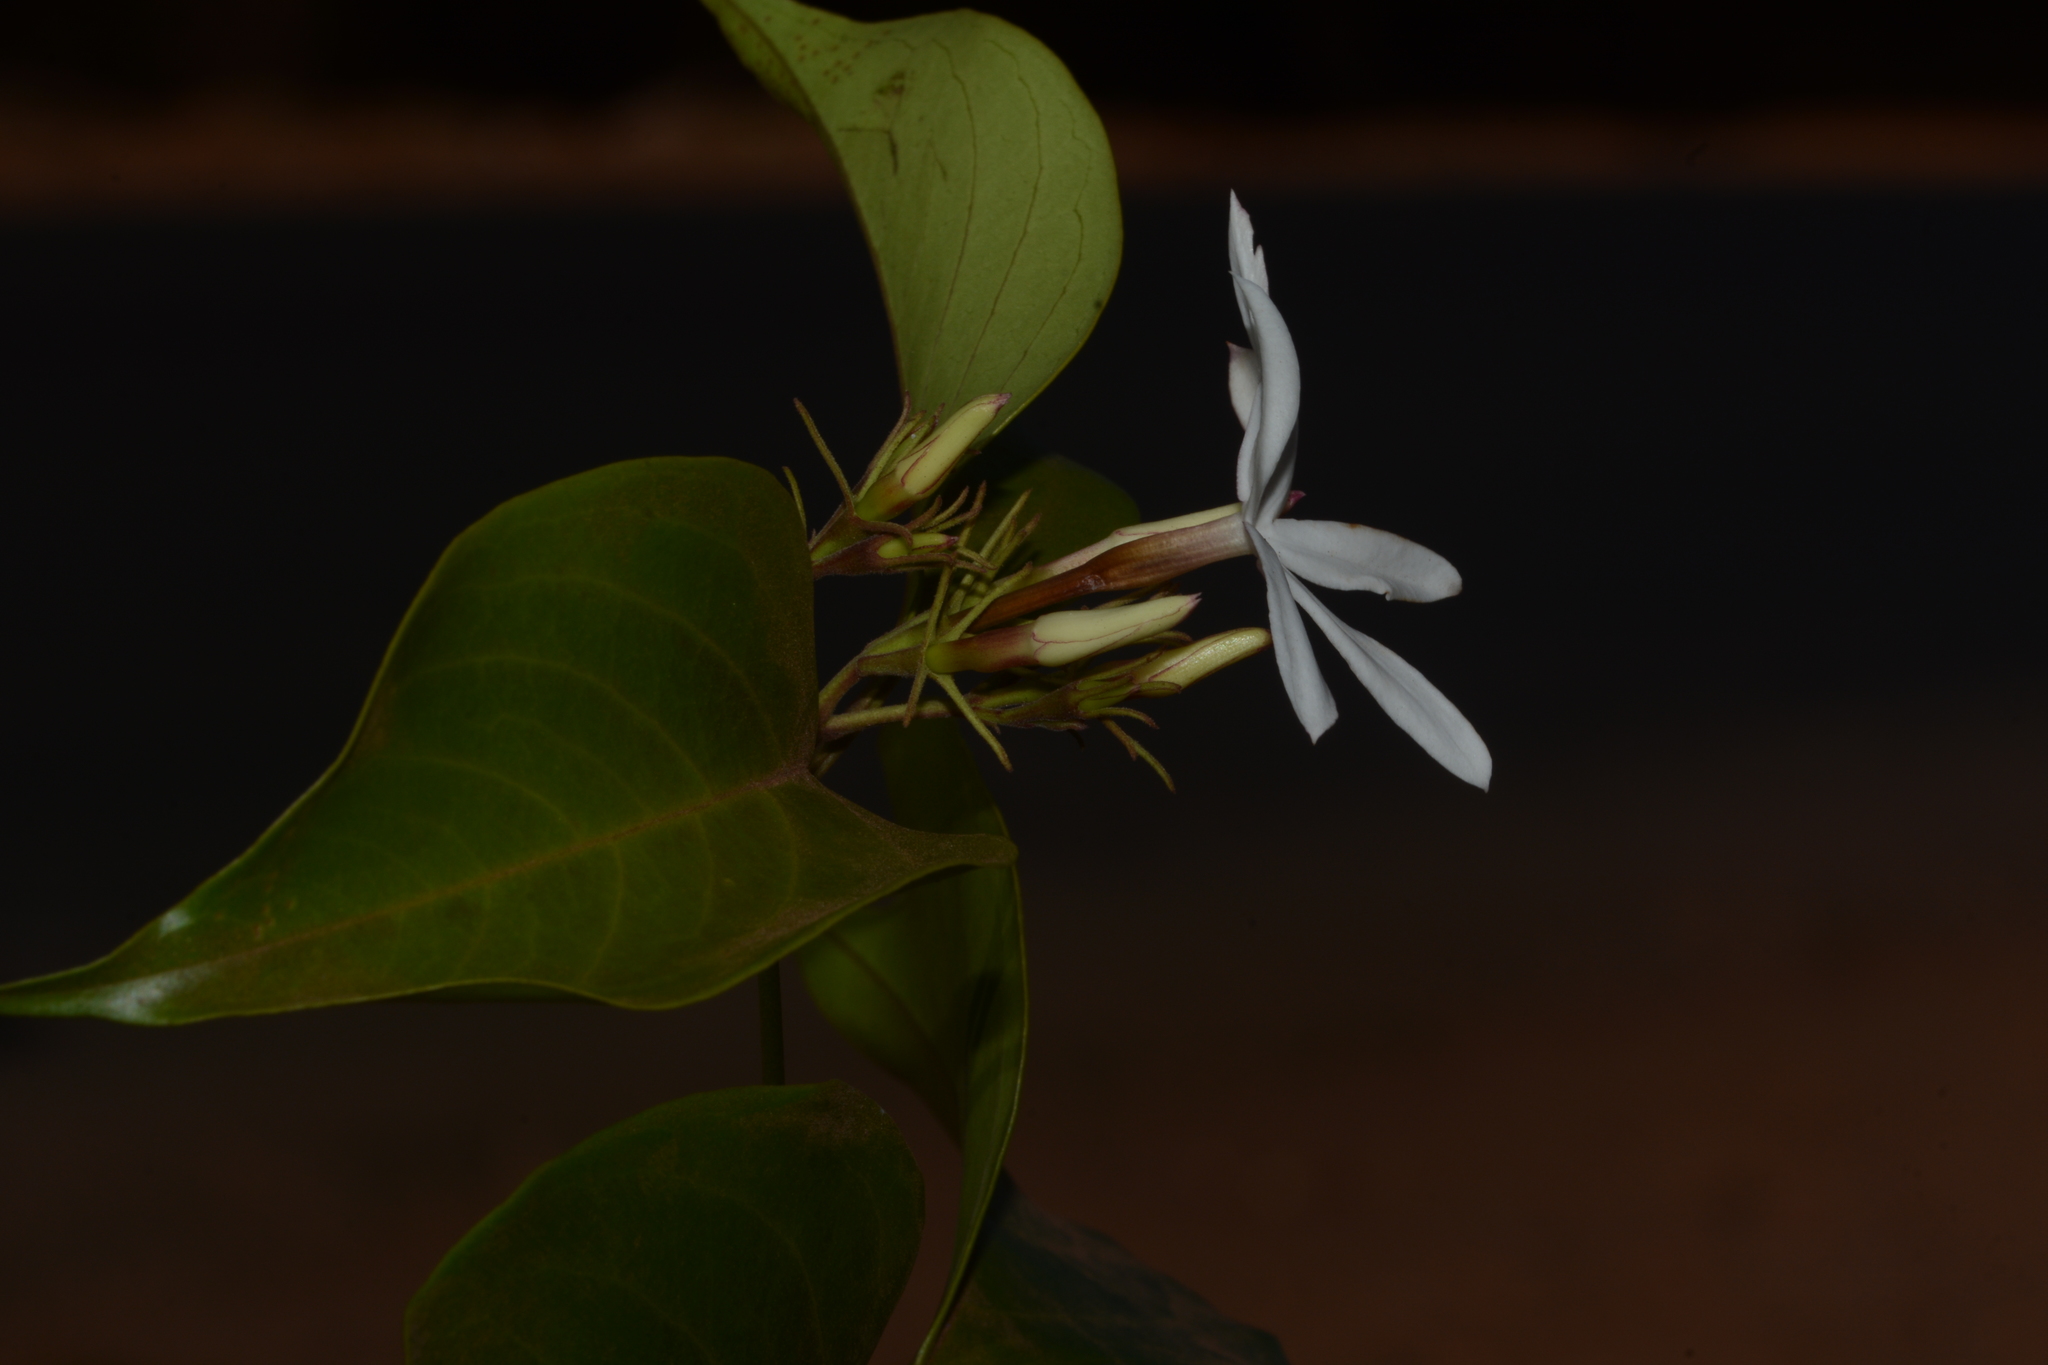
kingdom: Plantae
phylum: Tracheophyta
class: Magnoliopsida
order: Lamiales
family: Oleaceae
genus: Jasminum
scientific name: Jasminum malabaricum
